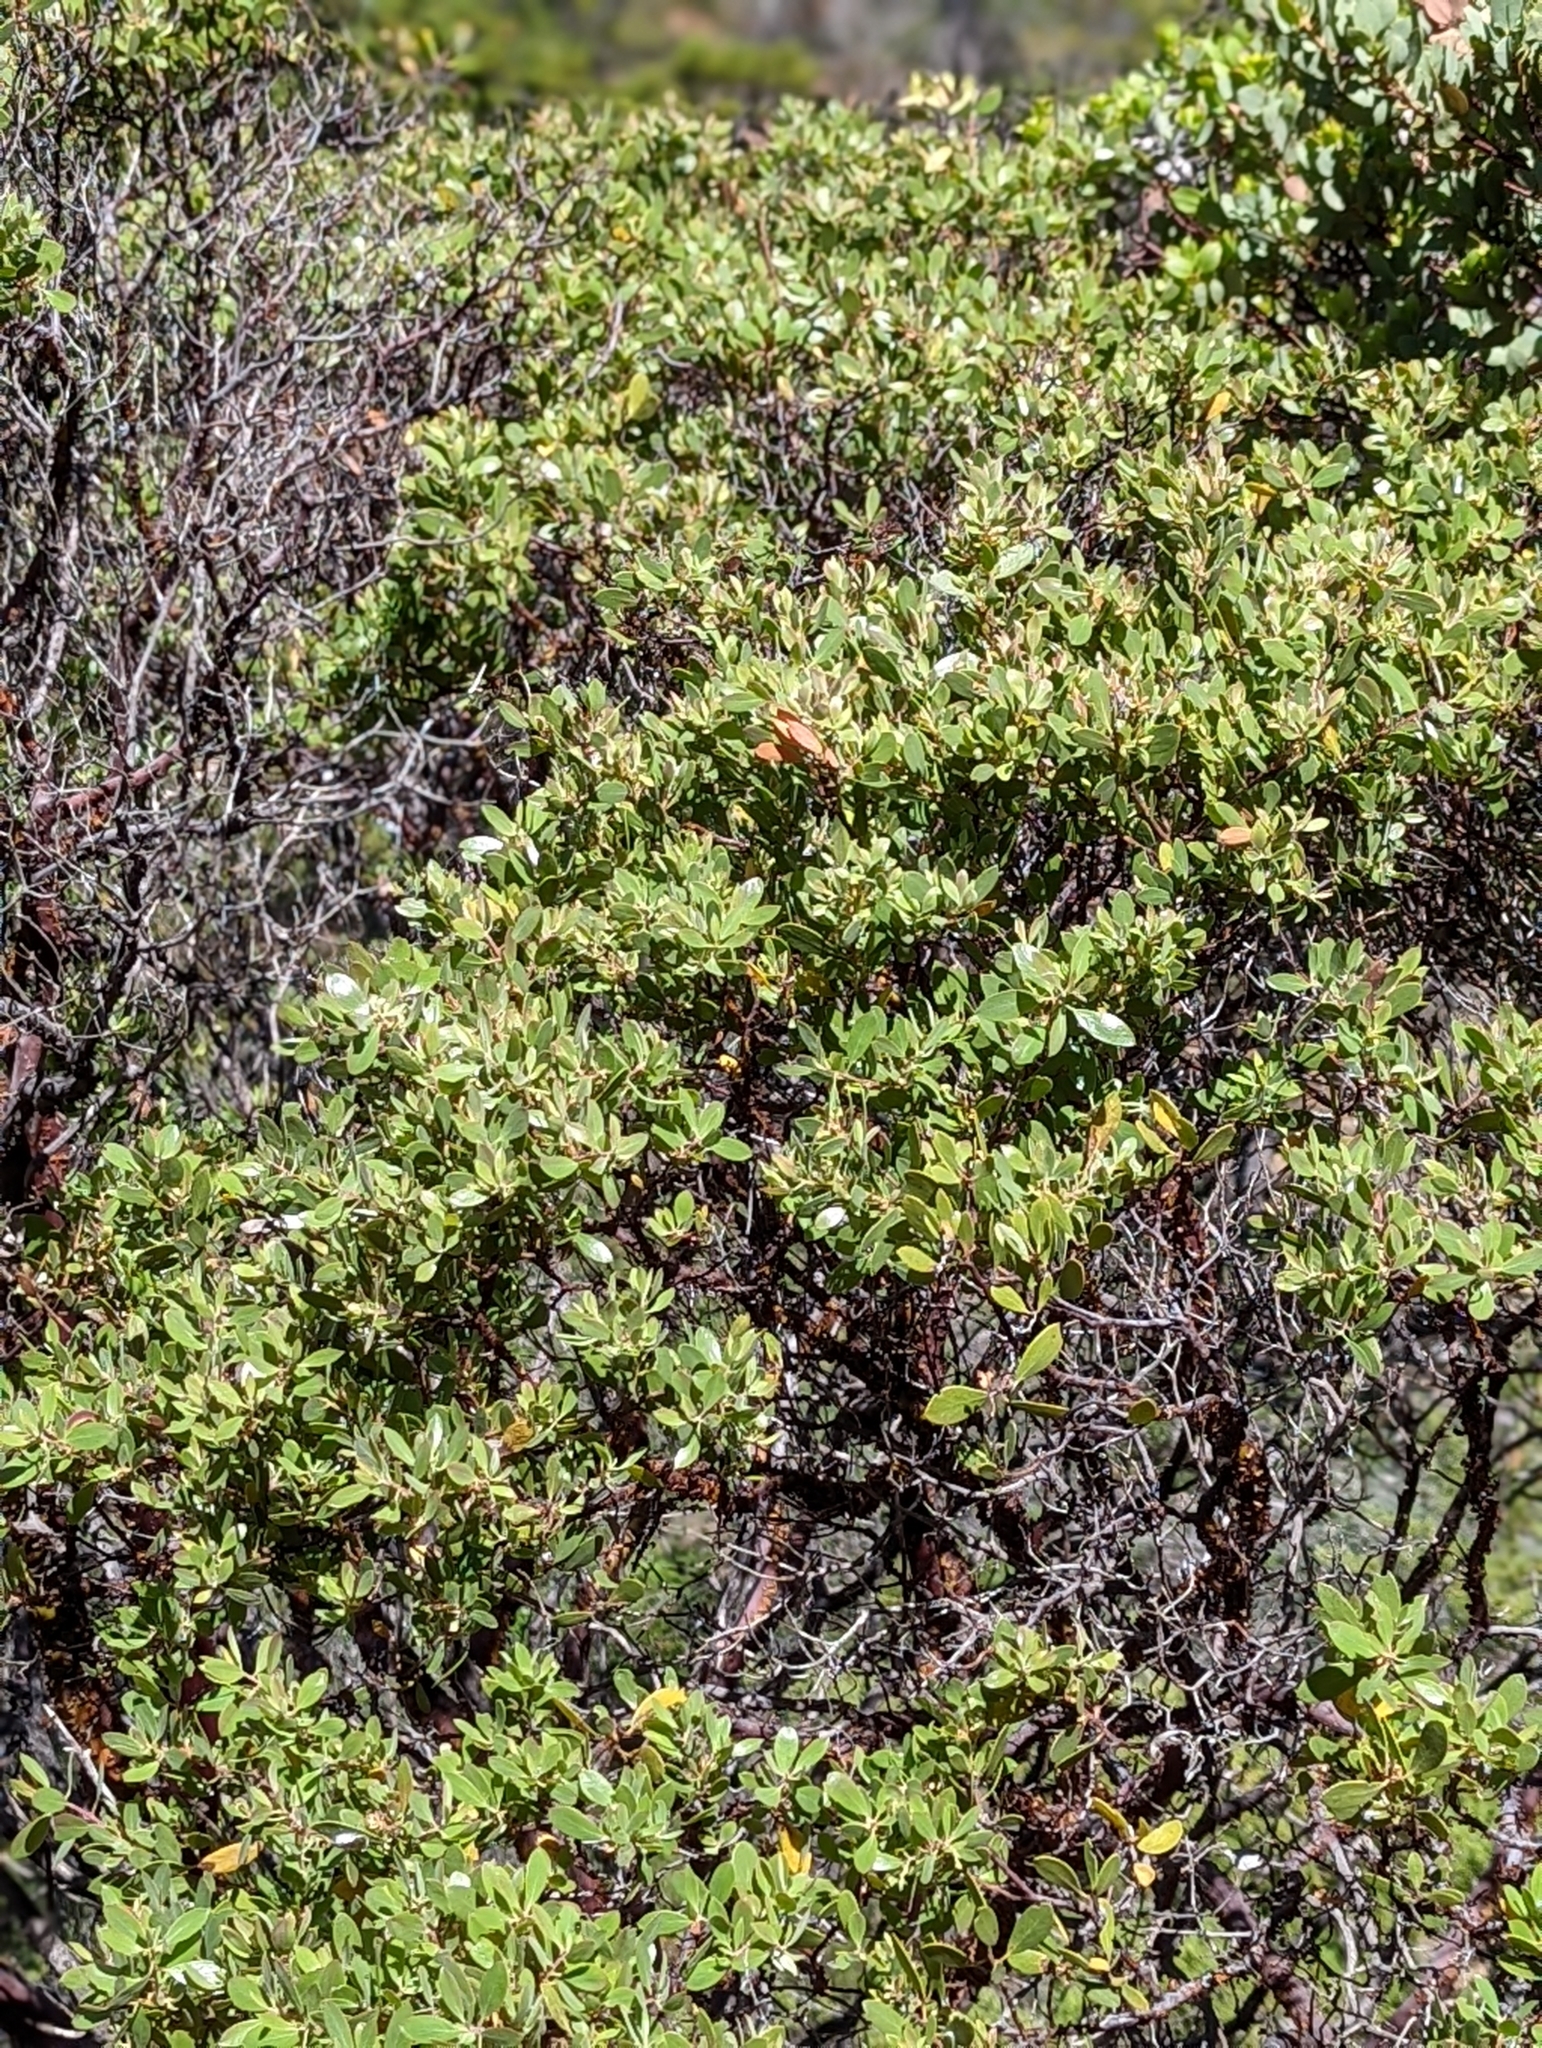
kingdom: Plantae
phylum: Tracheophyta
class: Magnoliopsida
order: Ericales
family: Ericaceae
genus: Arctostaphylos
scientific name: Arctostaphylos bakeri
